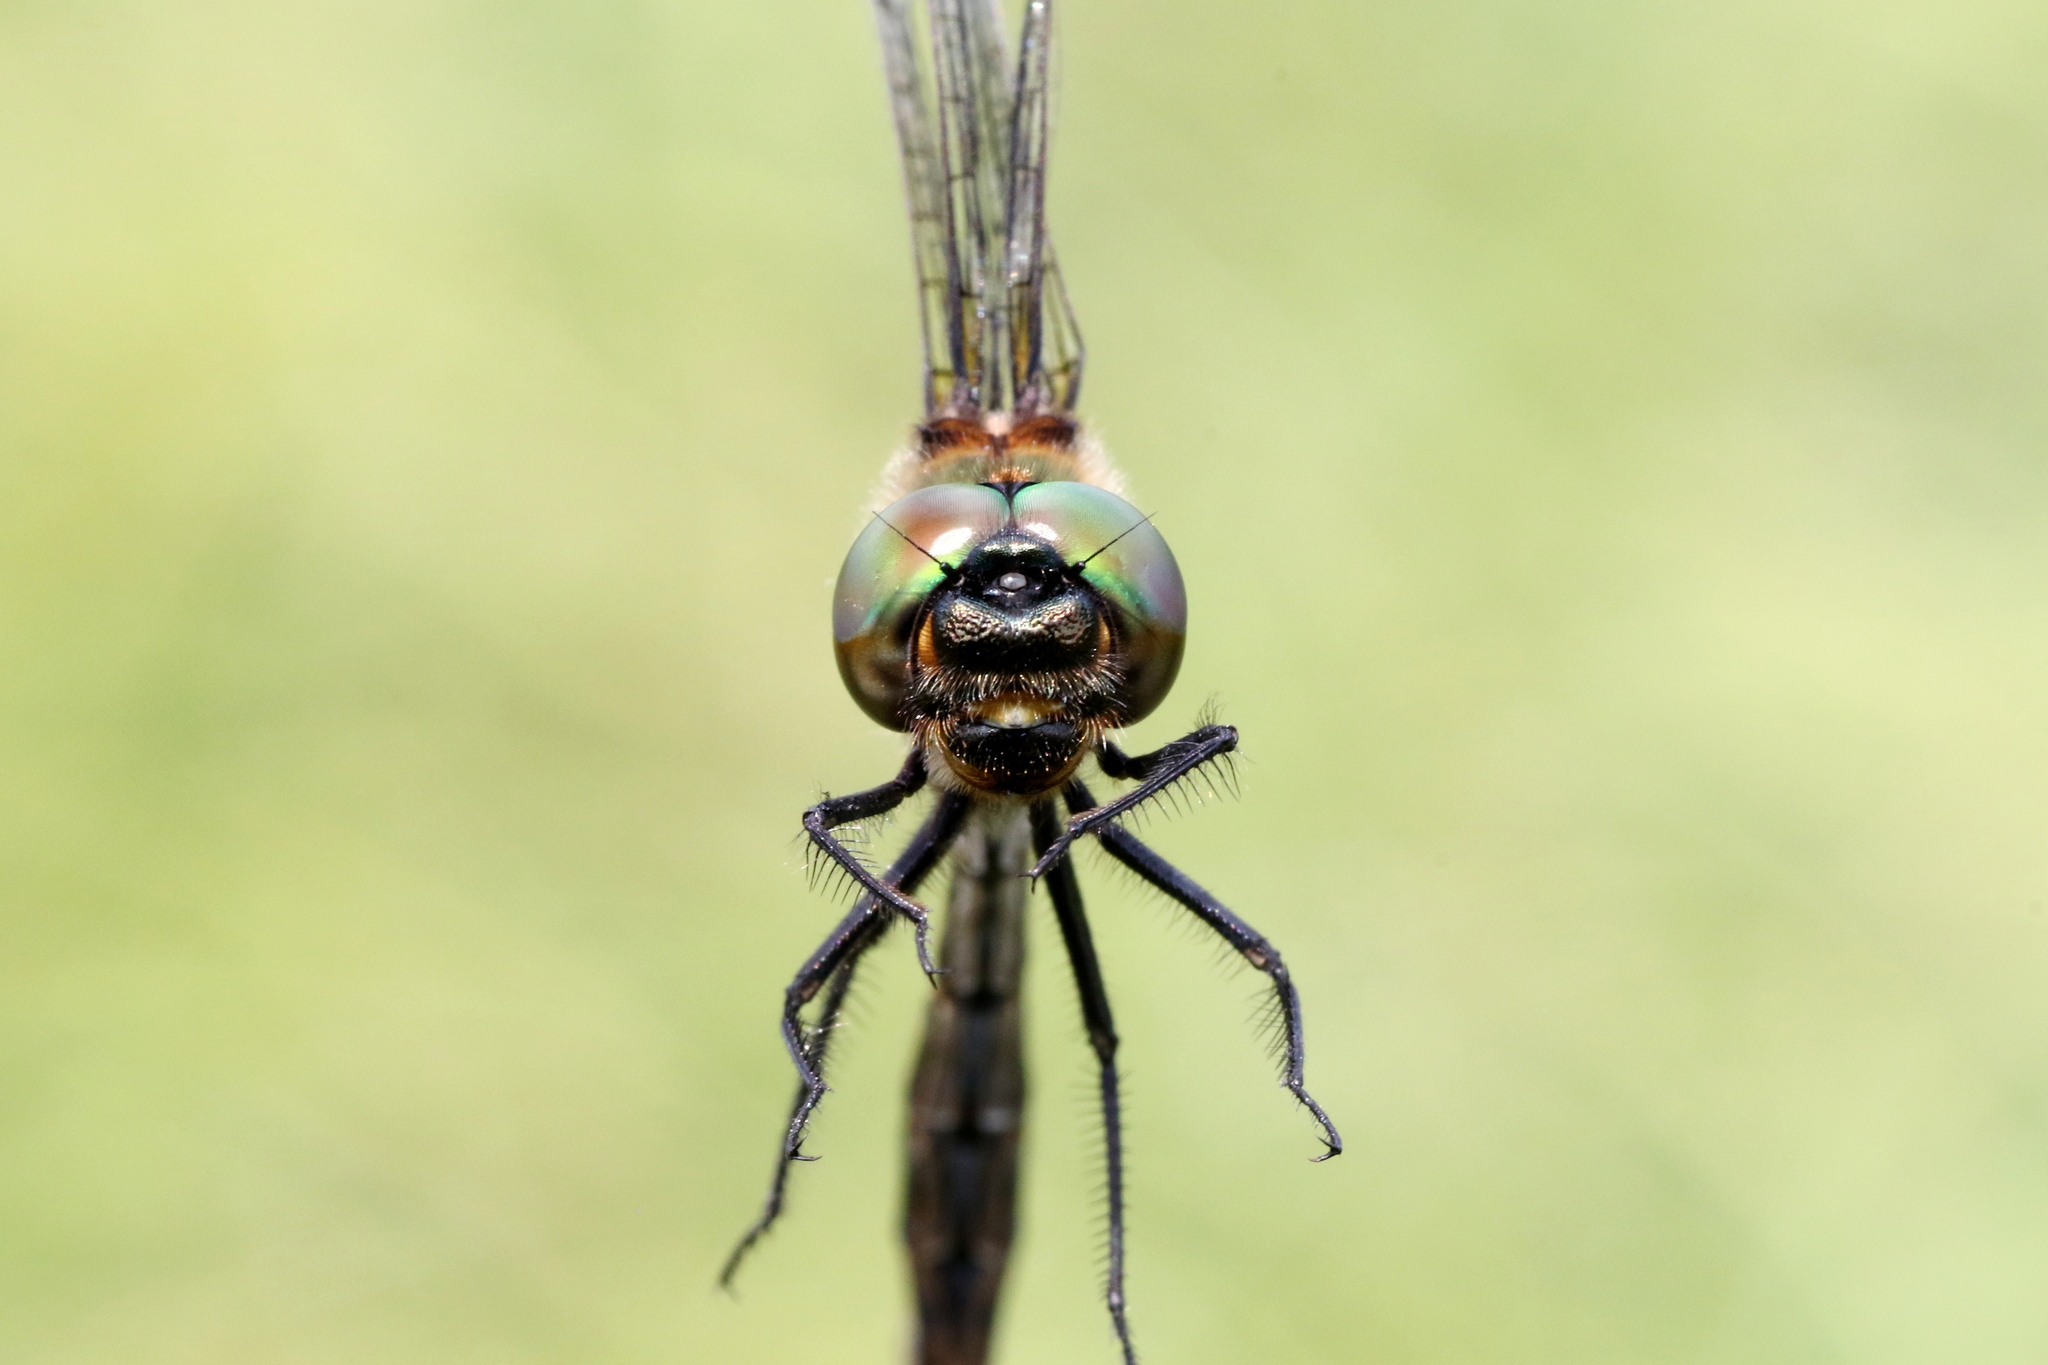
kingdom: Animalia
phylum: Arthropoda
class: Insecta
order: Odonata
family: Corduliidae
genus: Somatochlora
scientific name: Somatochlora franklini
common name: Delicate emerald
